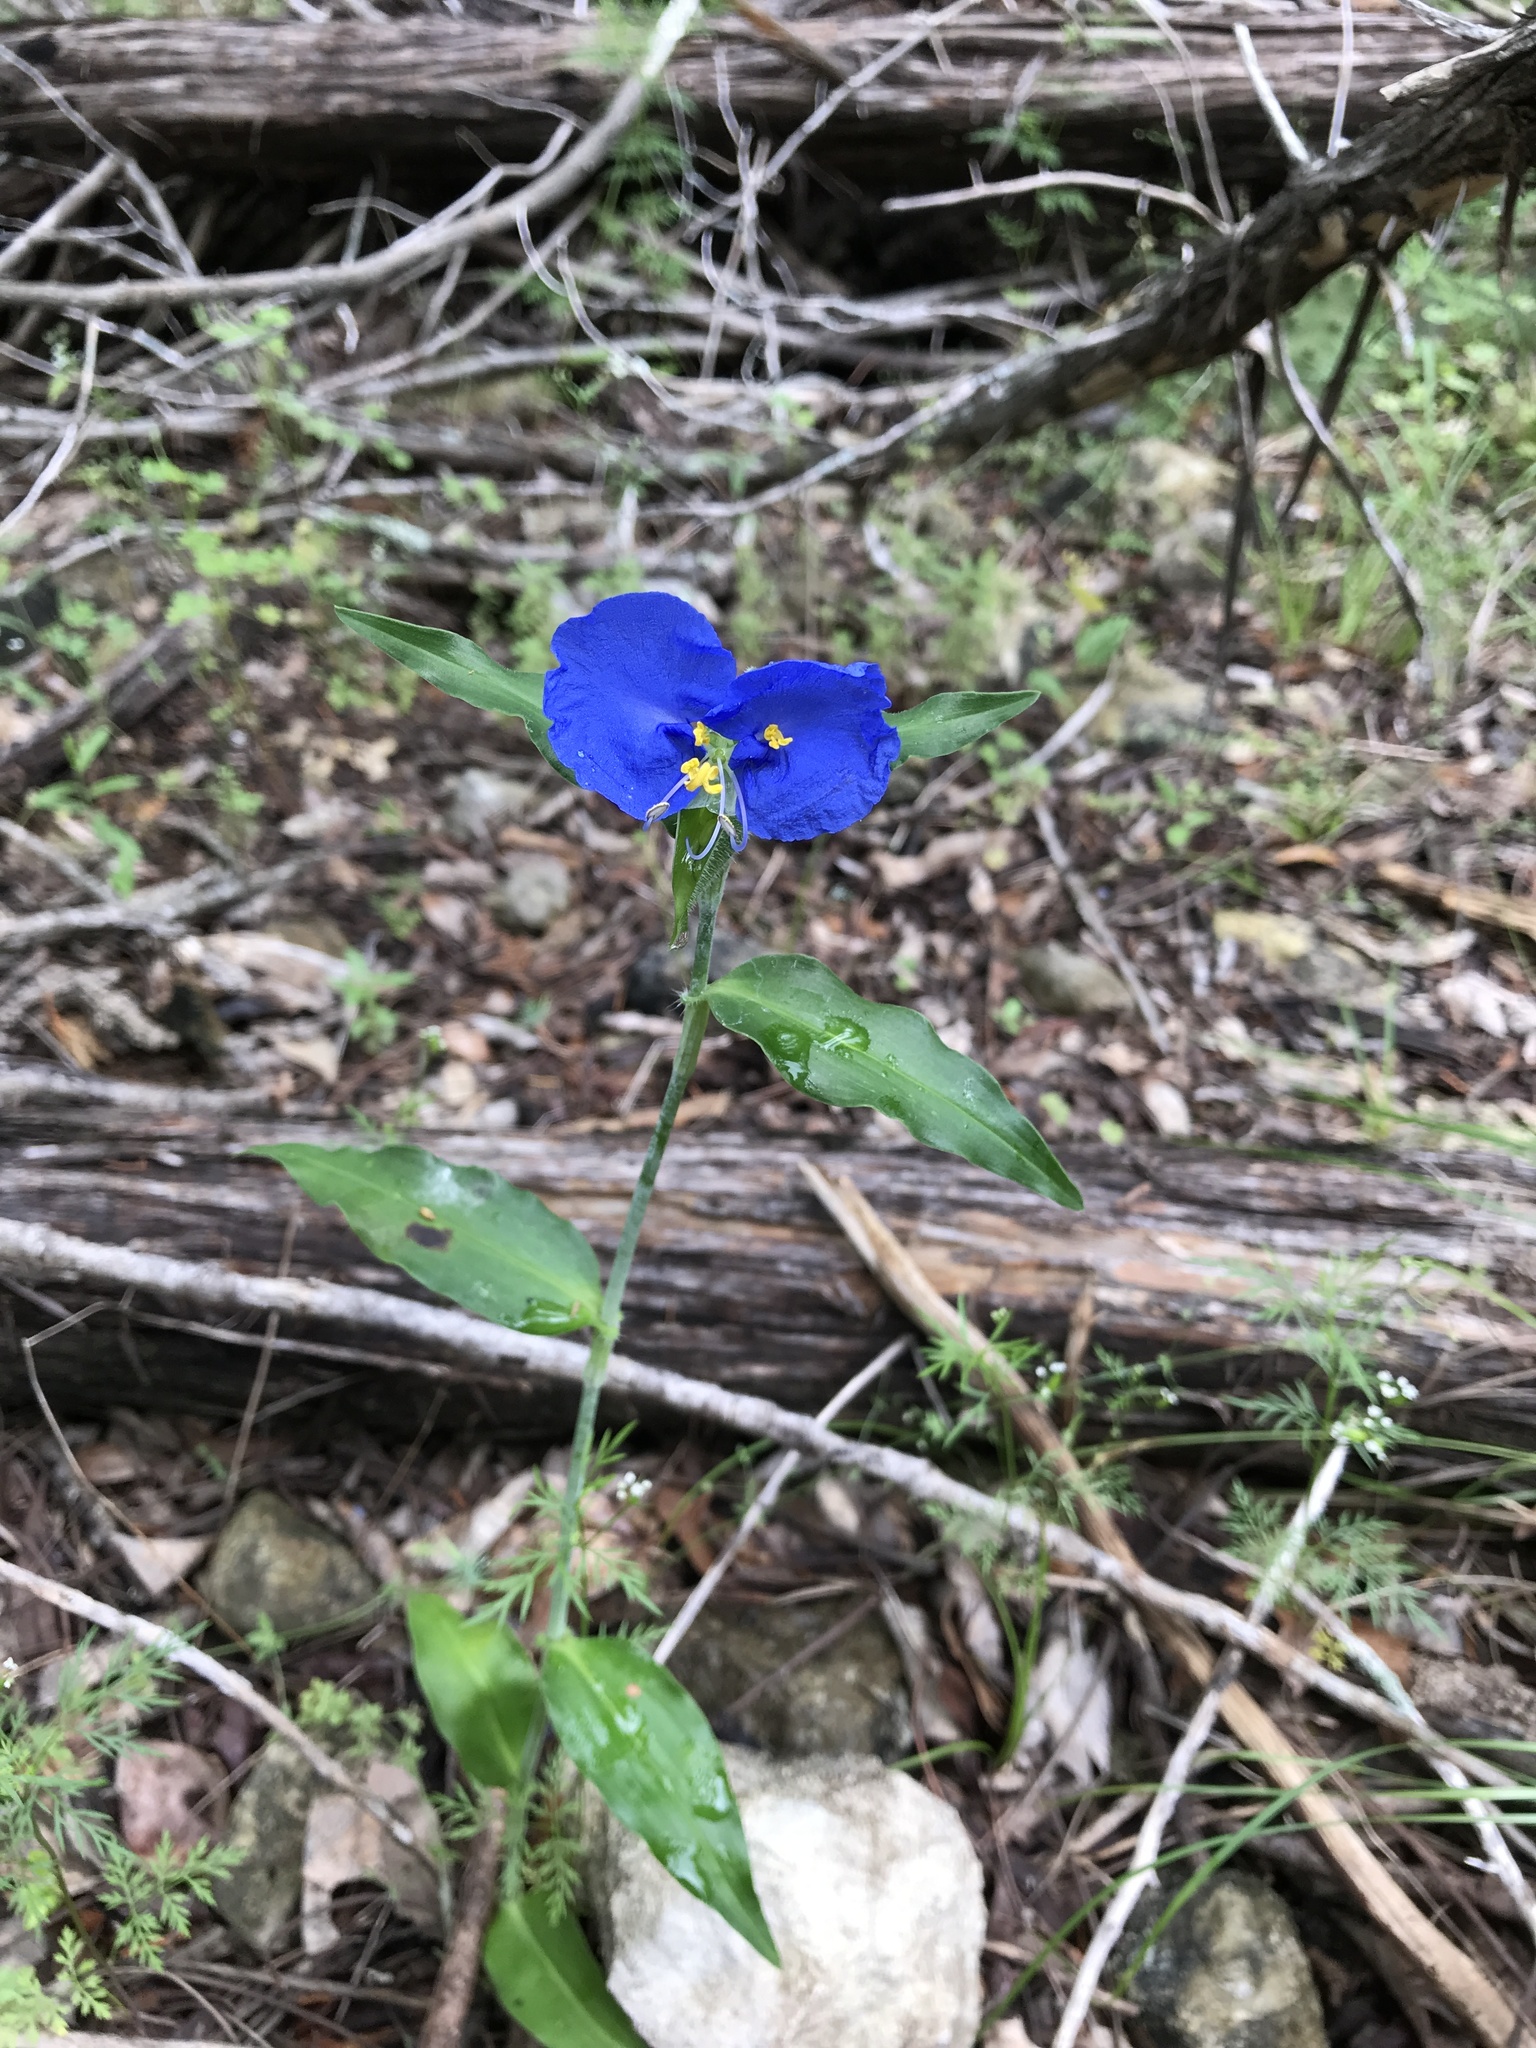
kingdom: Plantae
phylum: Tracheophyta
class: Liliopsida
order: Commelinales
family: Commelinaceae
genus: Commelina
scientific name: Commelina erecta
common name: Blousel blommetjie
